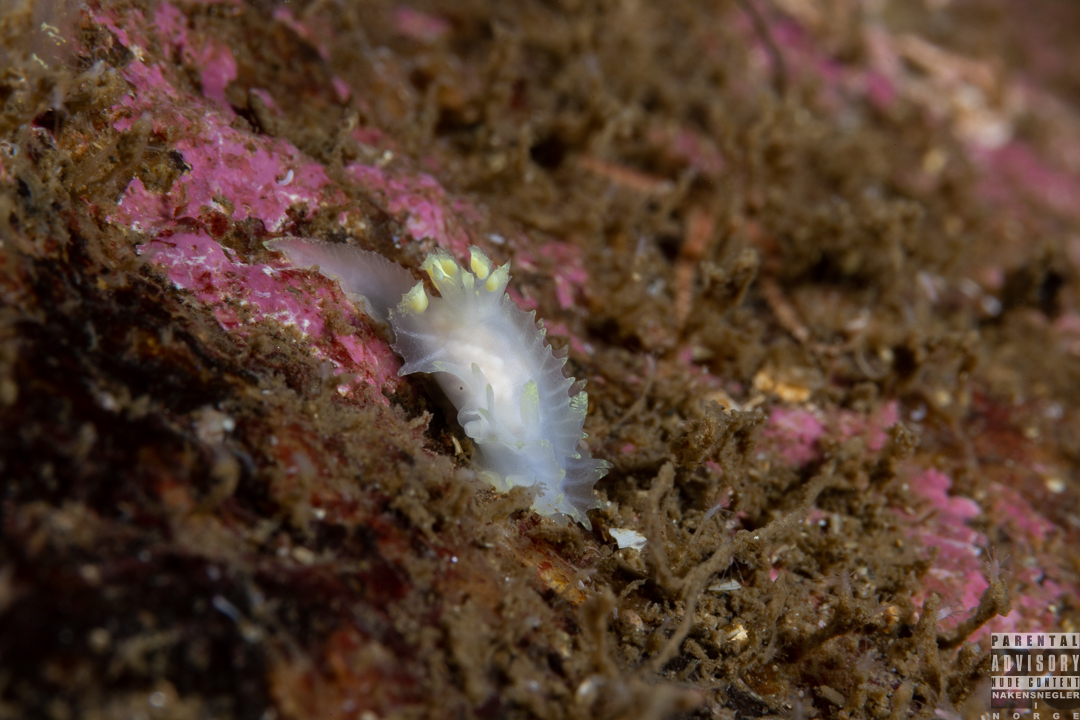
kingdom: Animalia
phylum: Mollusca
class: Gastropoda
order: Nudibranchia
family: Goniodorididae
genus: Lophodoris
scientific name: Lophodoris danielsseni
